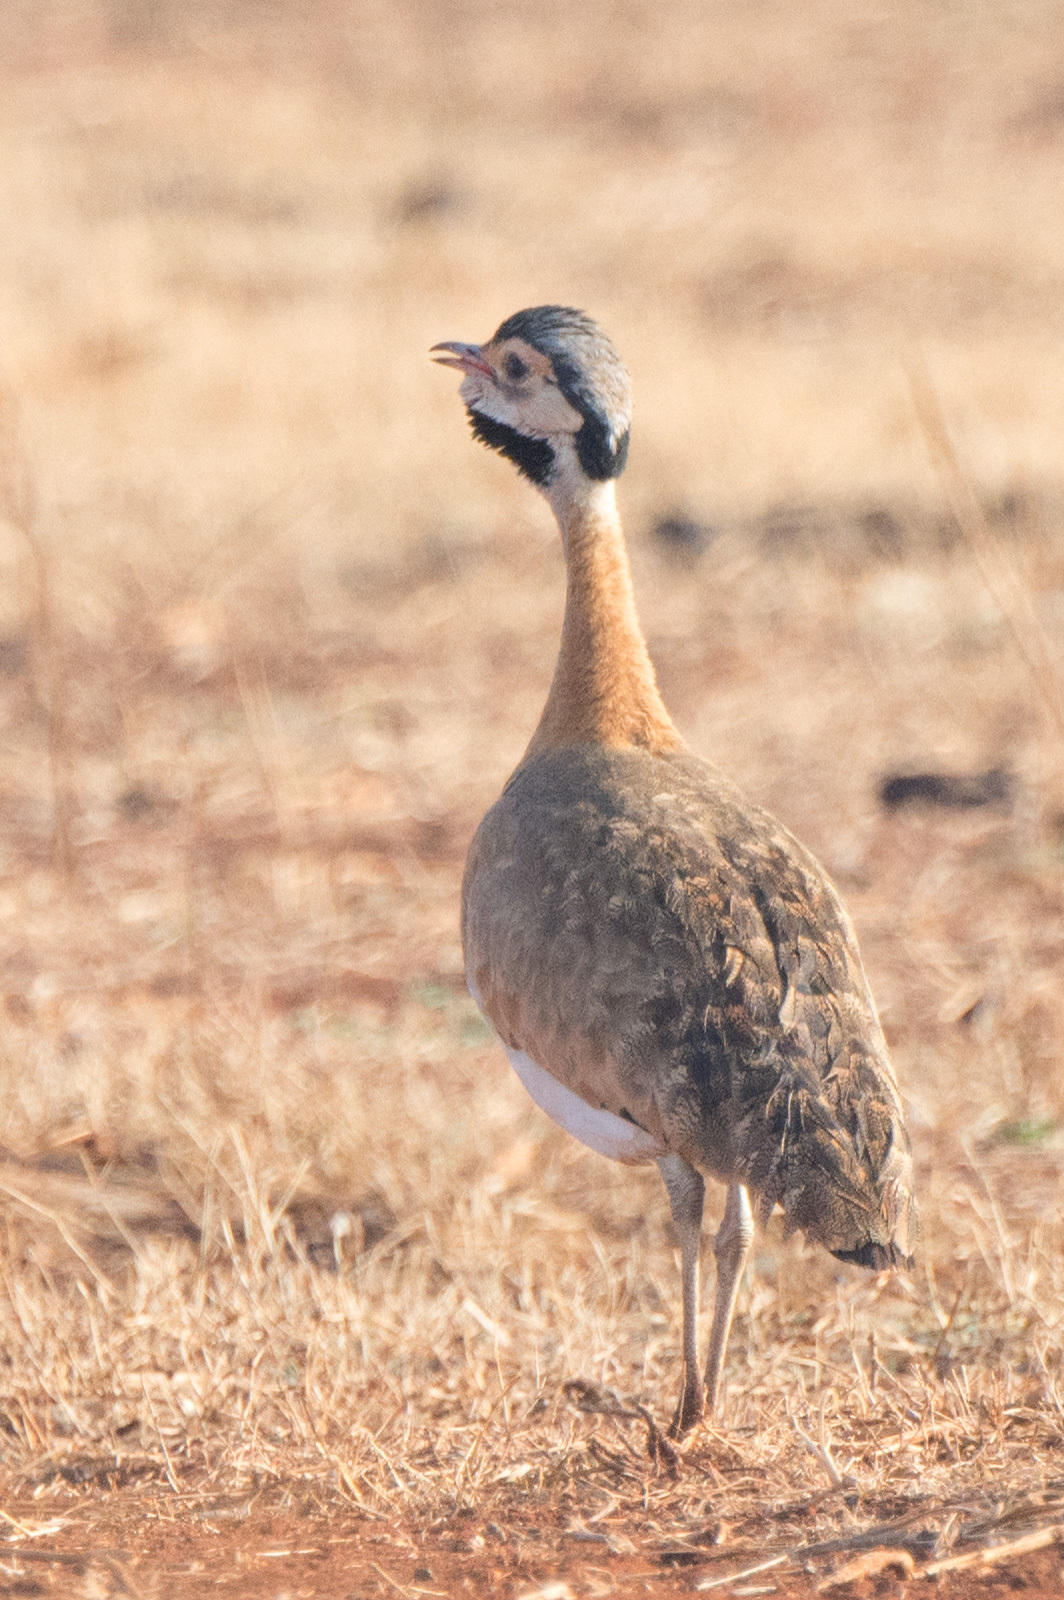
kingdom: Animalia
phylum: Chordata
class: Aves
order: Otidiformes
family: Otididae
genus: Eupodotis
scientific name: Eupodotis senegalensis
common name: White-bellied bustard
